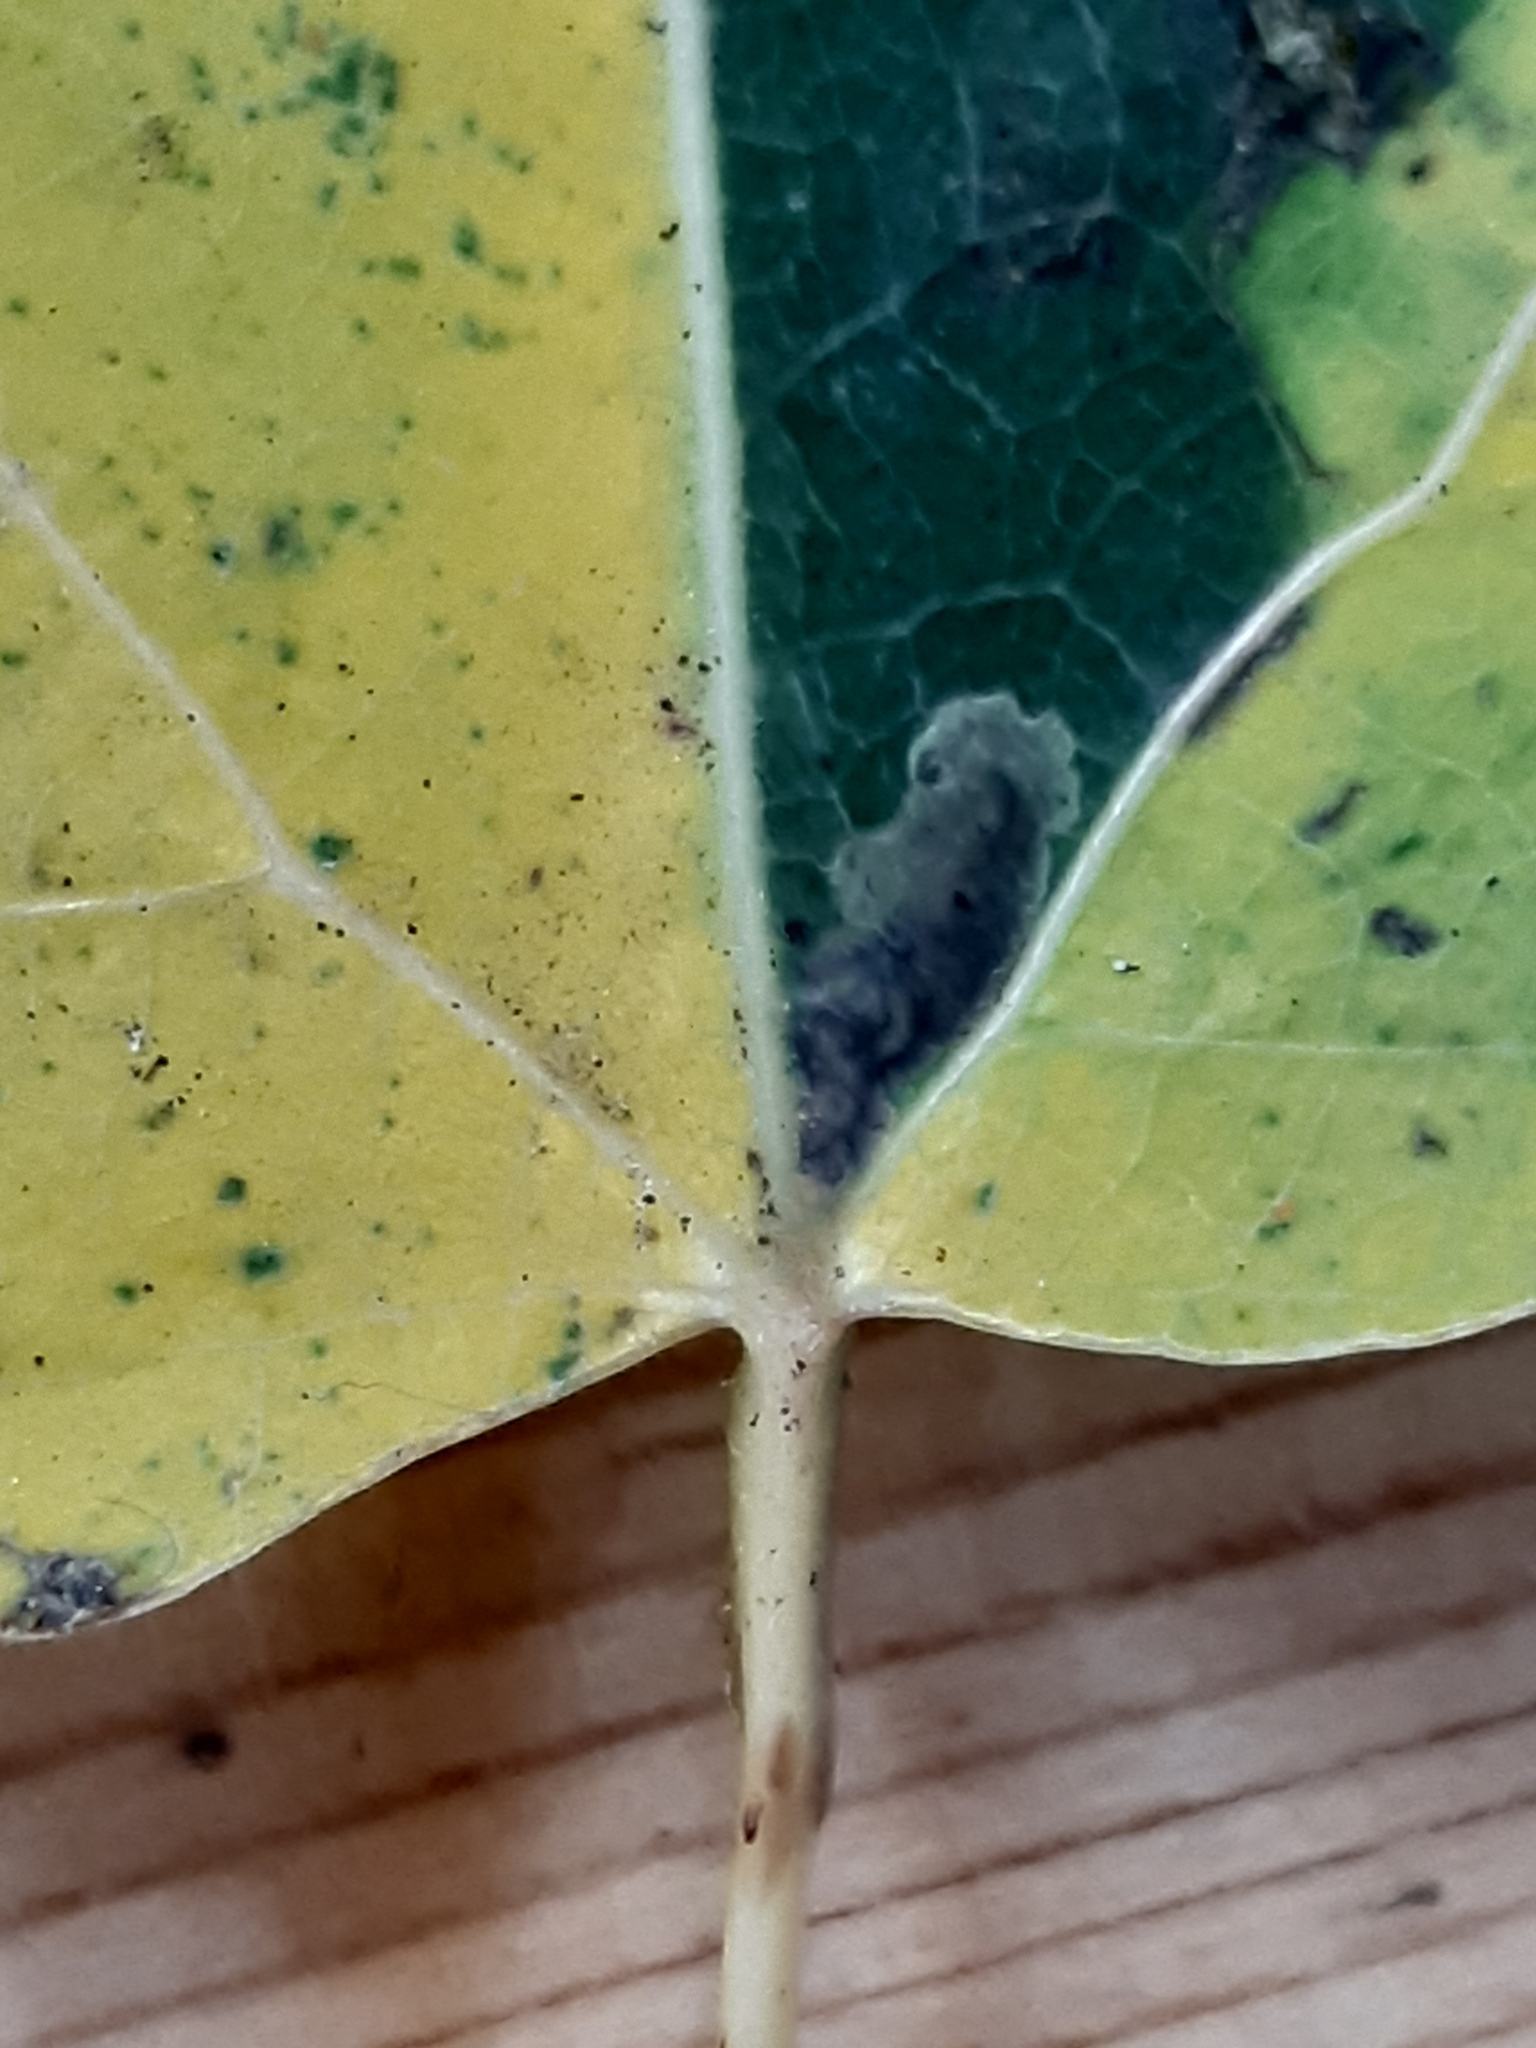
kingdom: Animalia
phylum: Arthropoda
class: Insecta
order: Lepidoptera
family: Nepticulidae
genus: Ectoedemia
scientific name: Ectoedemia argyropeza
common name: Virgin pigmy
